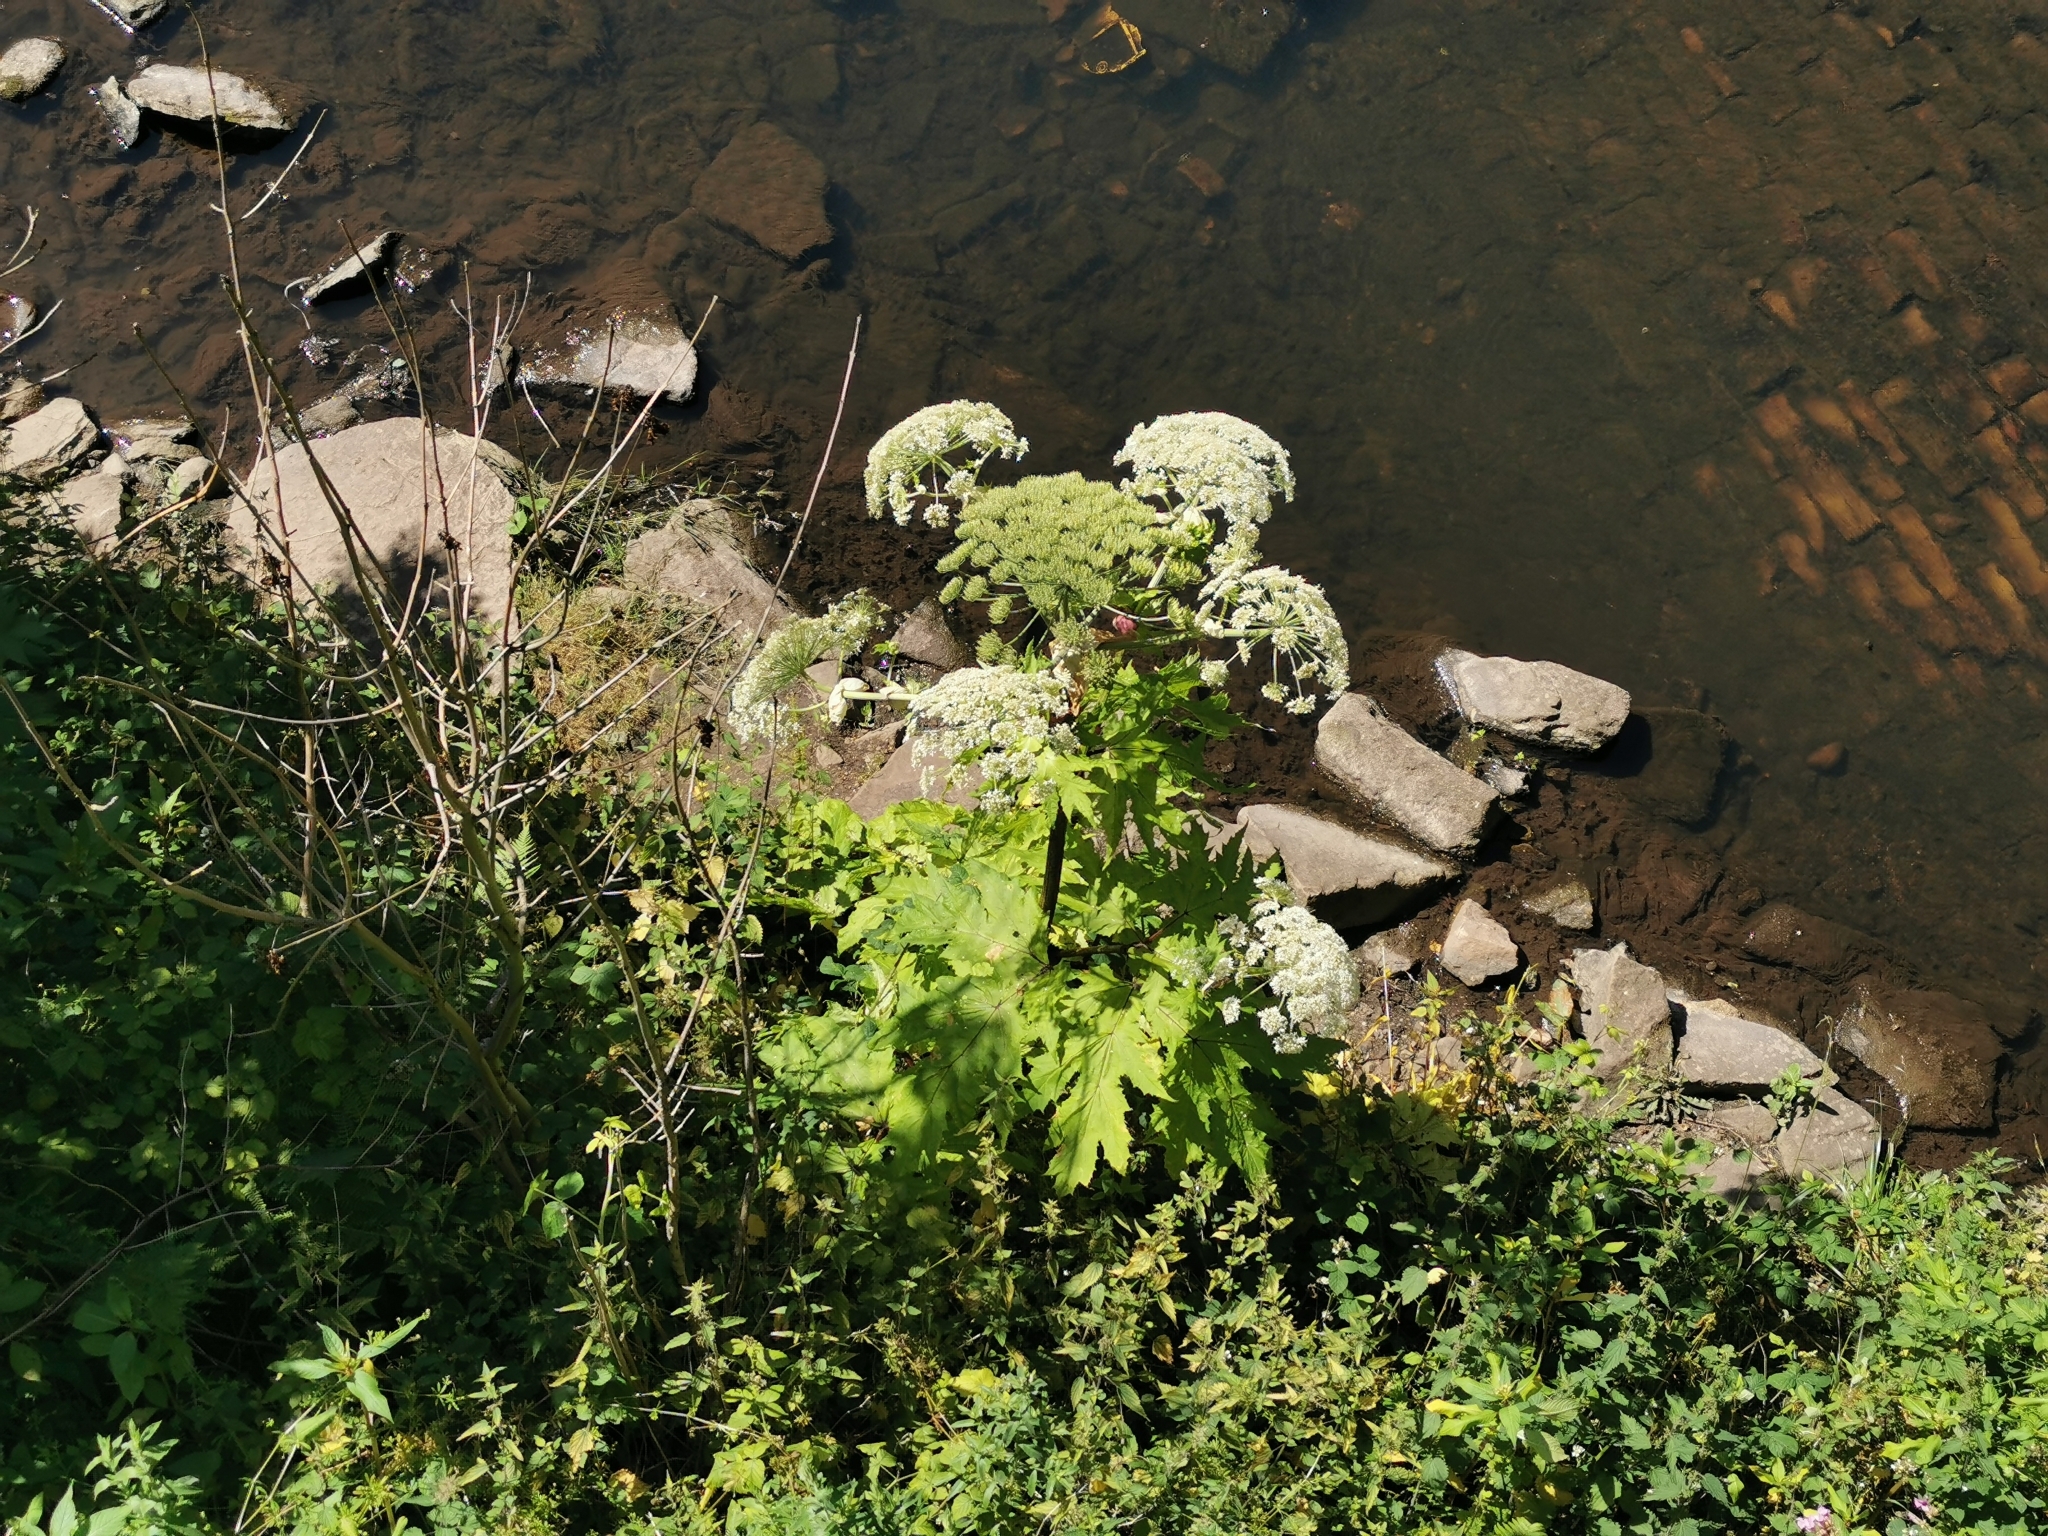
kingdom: Plantae
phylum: Tracheophyta
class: Magnoliopsida
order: Apiales
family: Apiaceae
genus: Heracleum
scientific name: Heracleum mantegazzianum
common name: Giant hogweed
